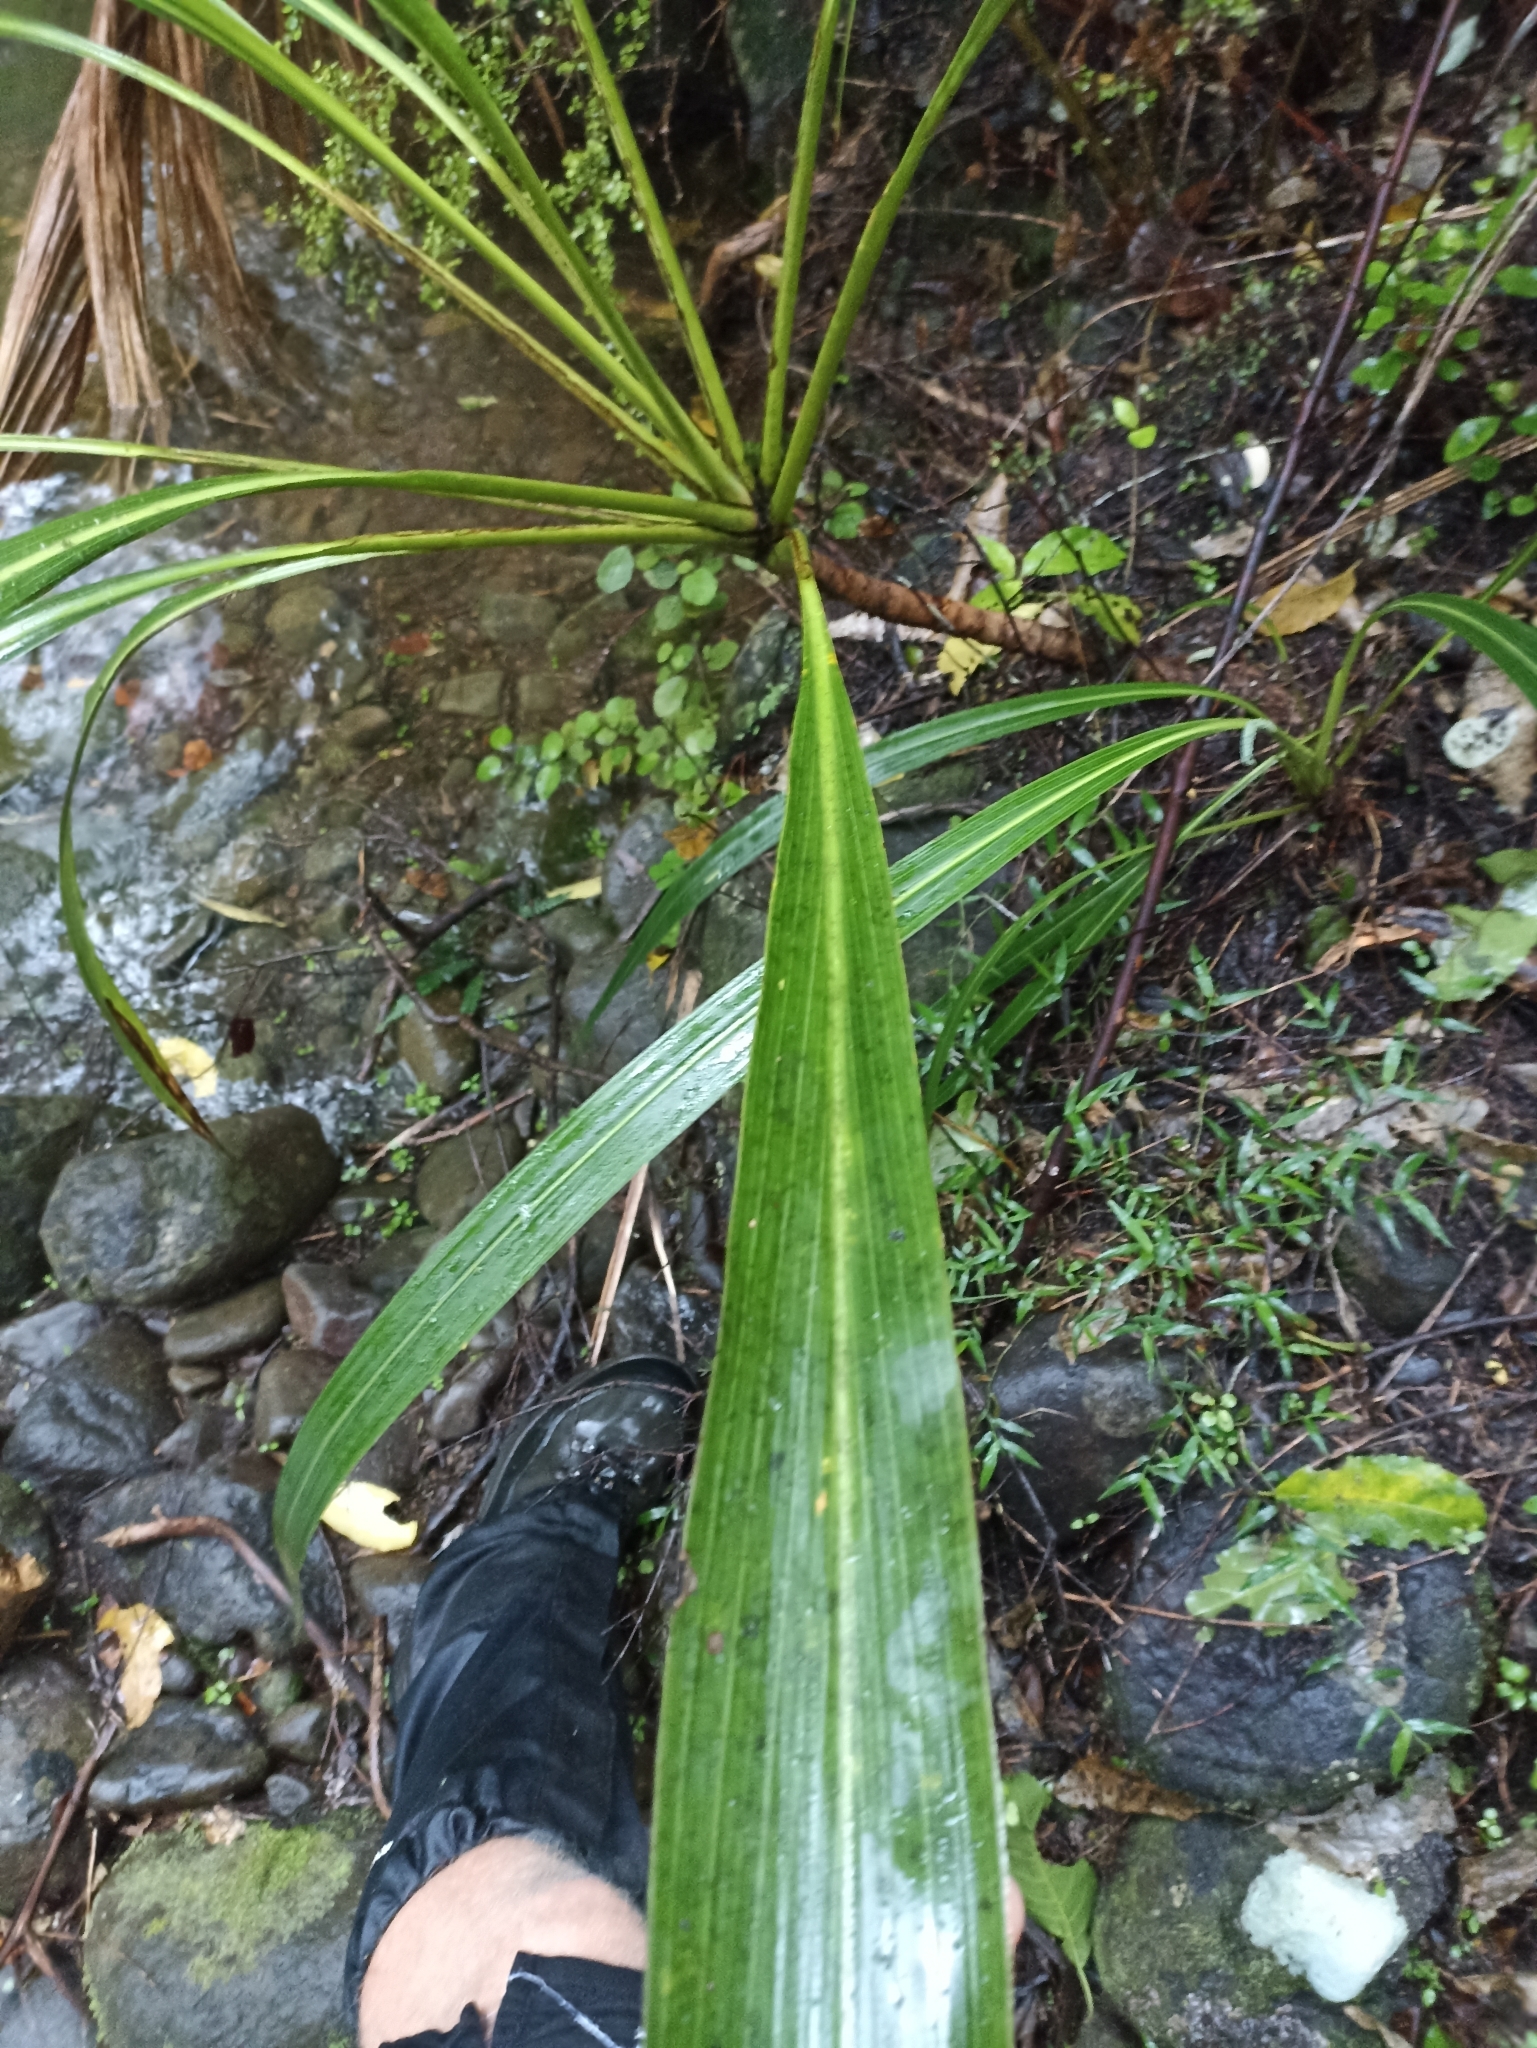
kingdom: Plantae
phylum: Tracheophyta
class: Liliopsida
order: Asparagales
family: Asparagaceae
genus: Cordyline
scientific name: Cordyline banksii
